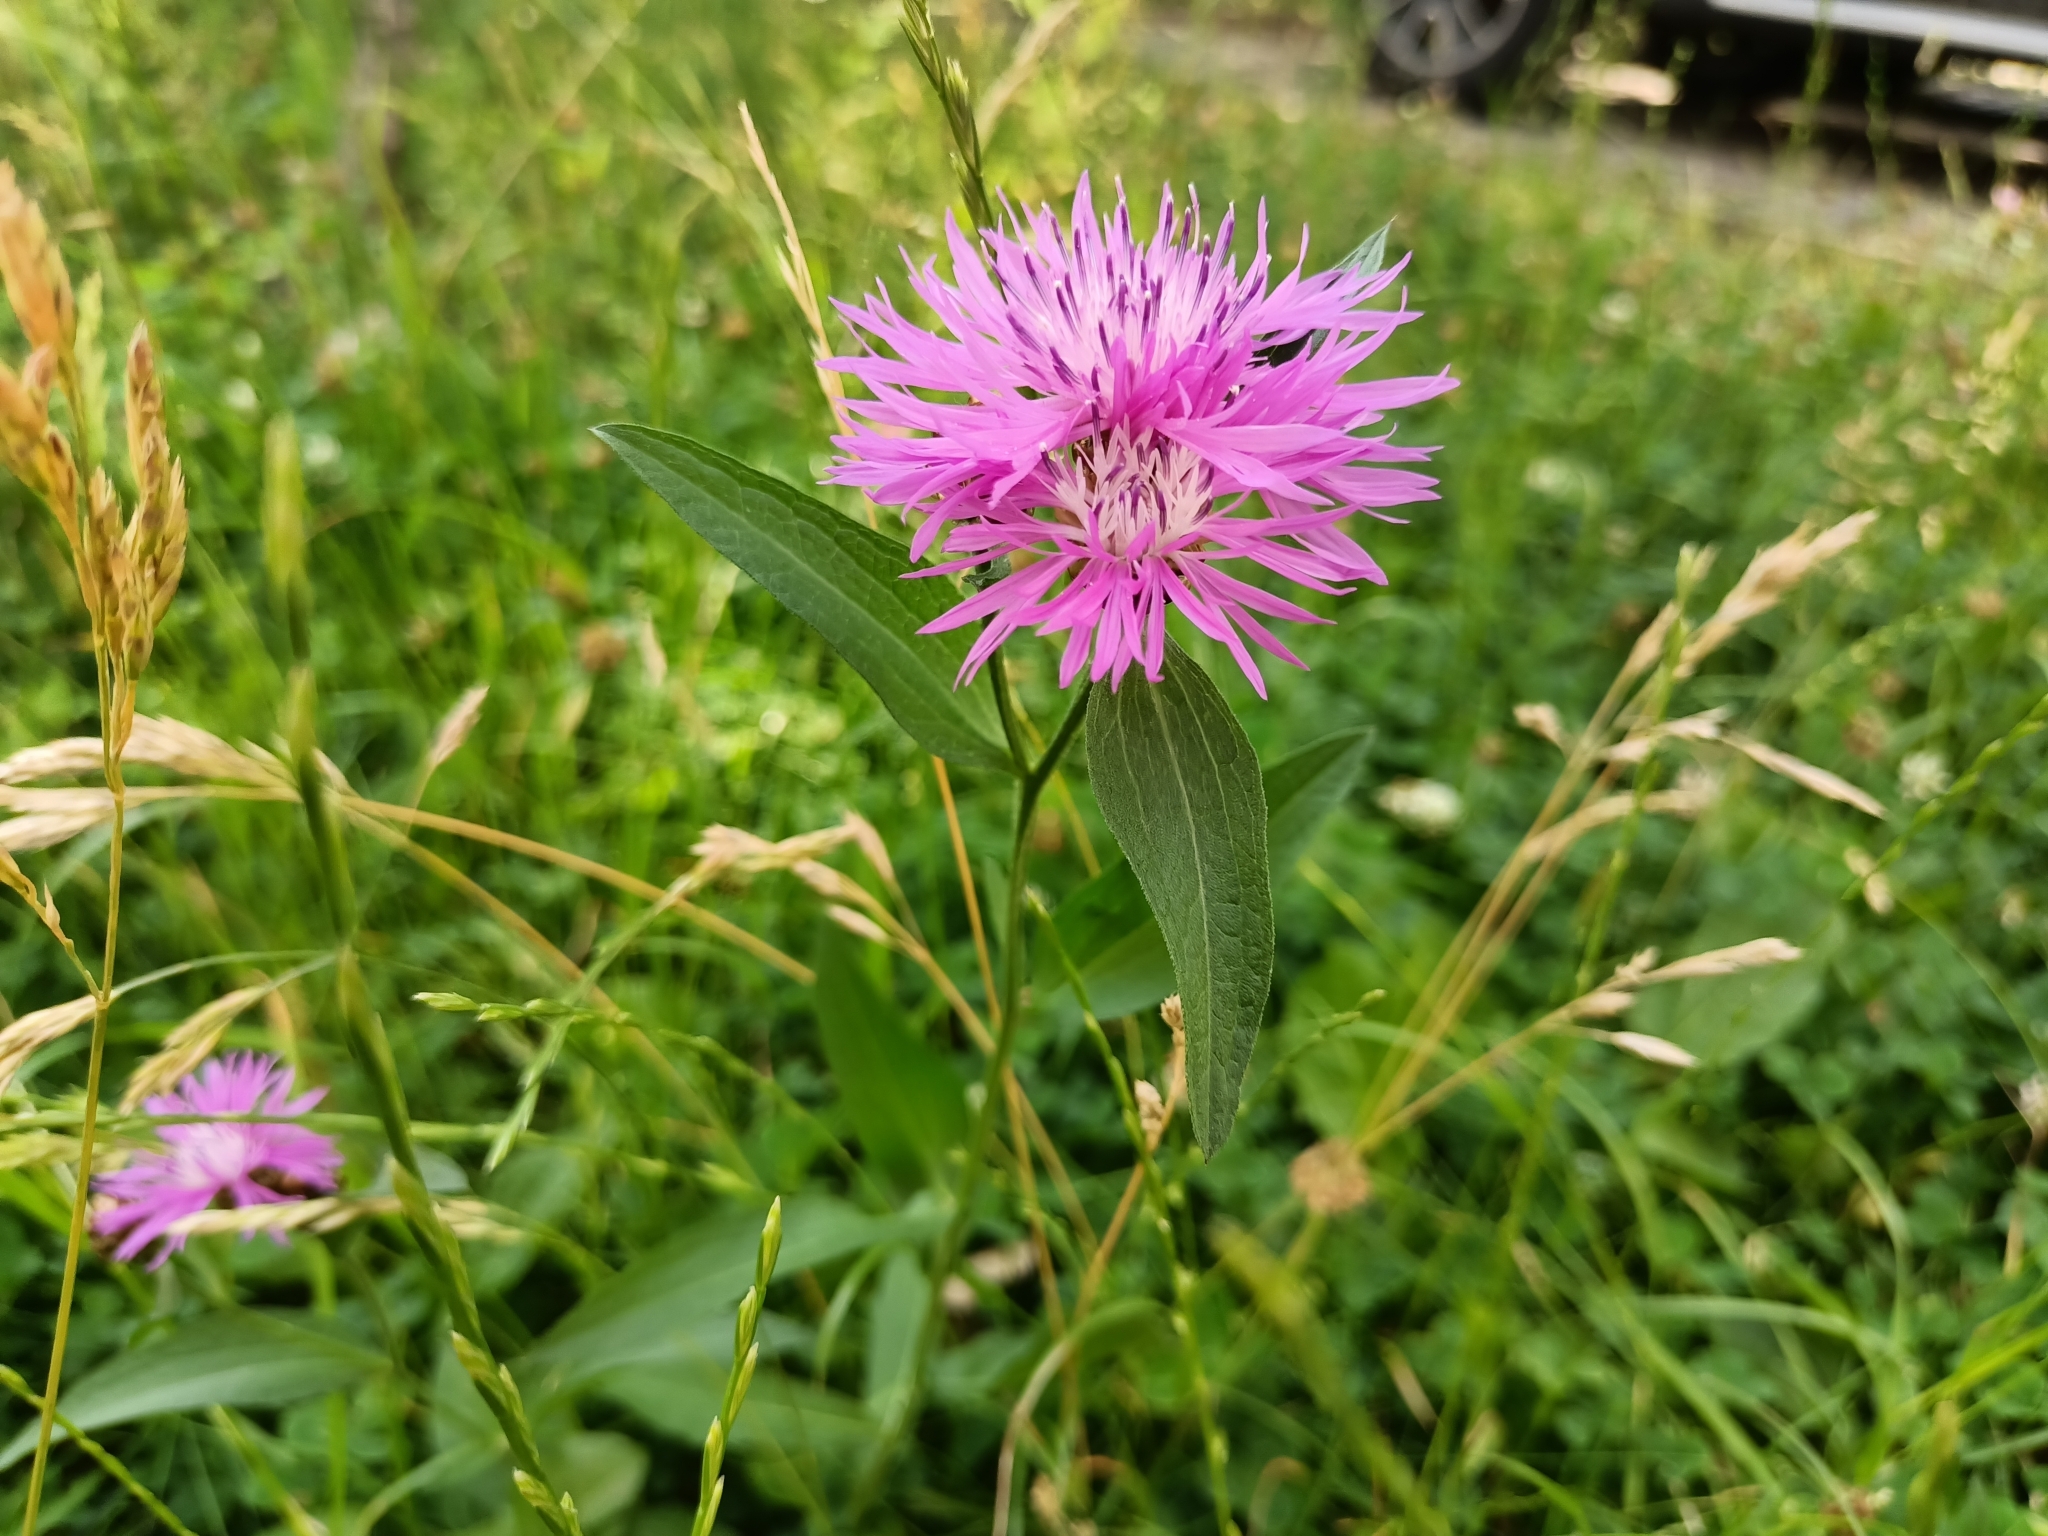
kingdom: Plantae
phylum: Tracheophyta
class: Magnoliopsida
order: Asterales
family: Asteraceae
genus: Centaurea
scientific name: Centaurea jacea
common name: Brown knapweed
